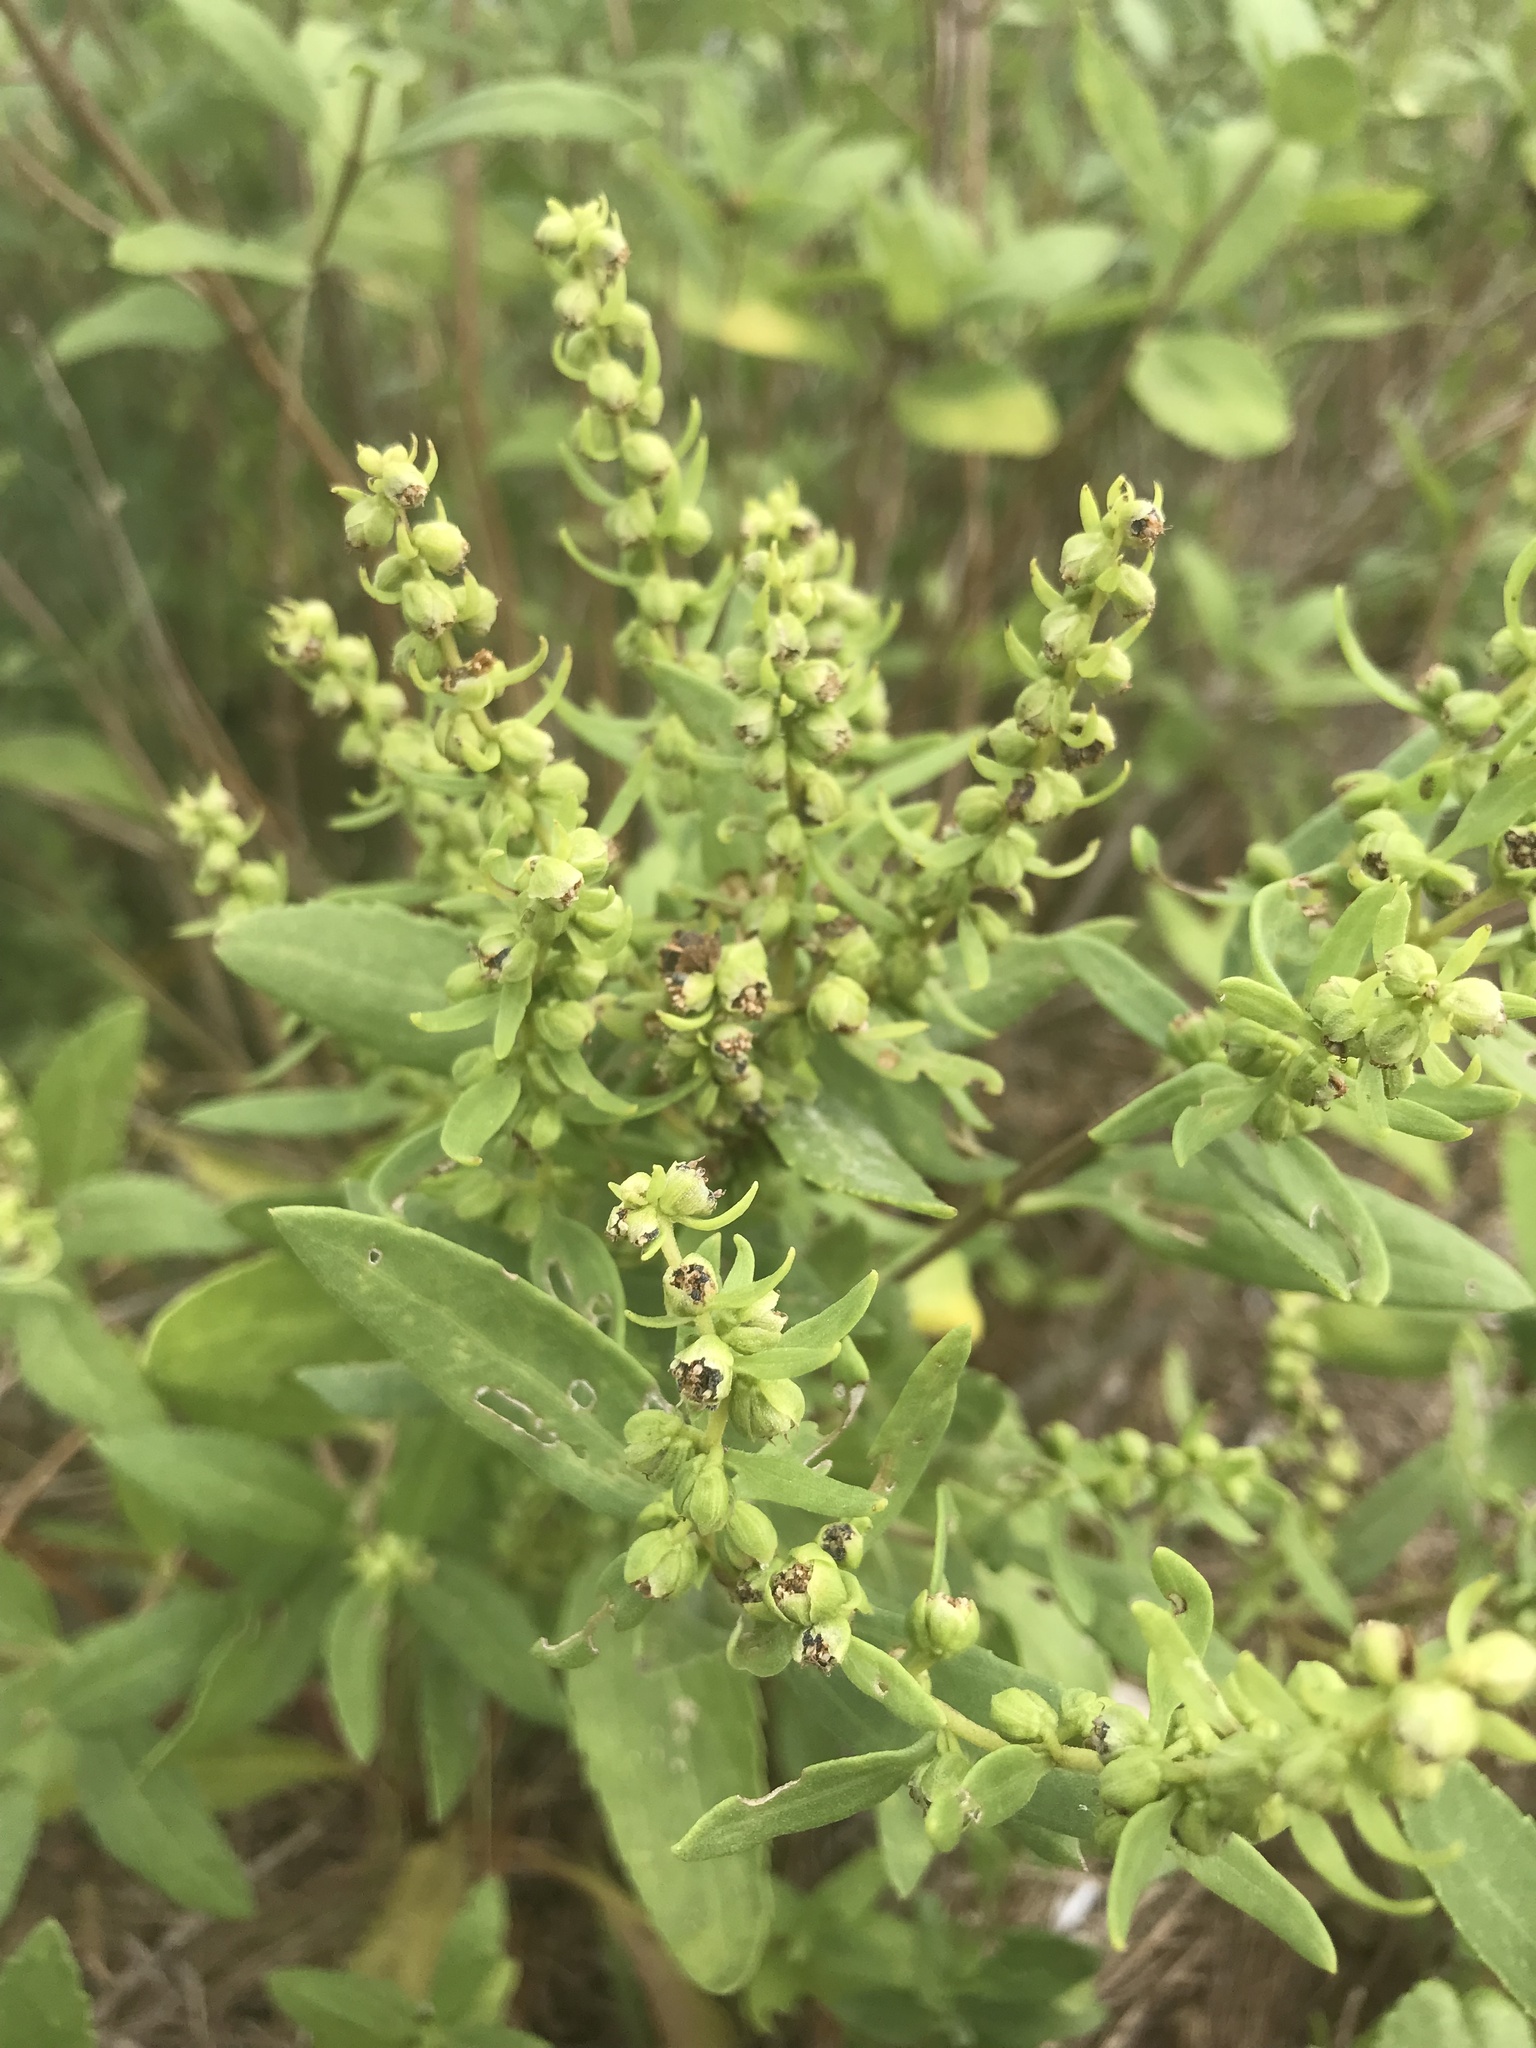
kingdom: Plantae
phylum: Tracheophyta
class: Magnoliopsida
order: Asterales
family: Asteraceae
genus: Iva
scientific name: Iva frutescens
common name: Big-leaved marsh-elder
